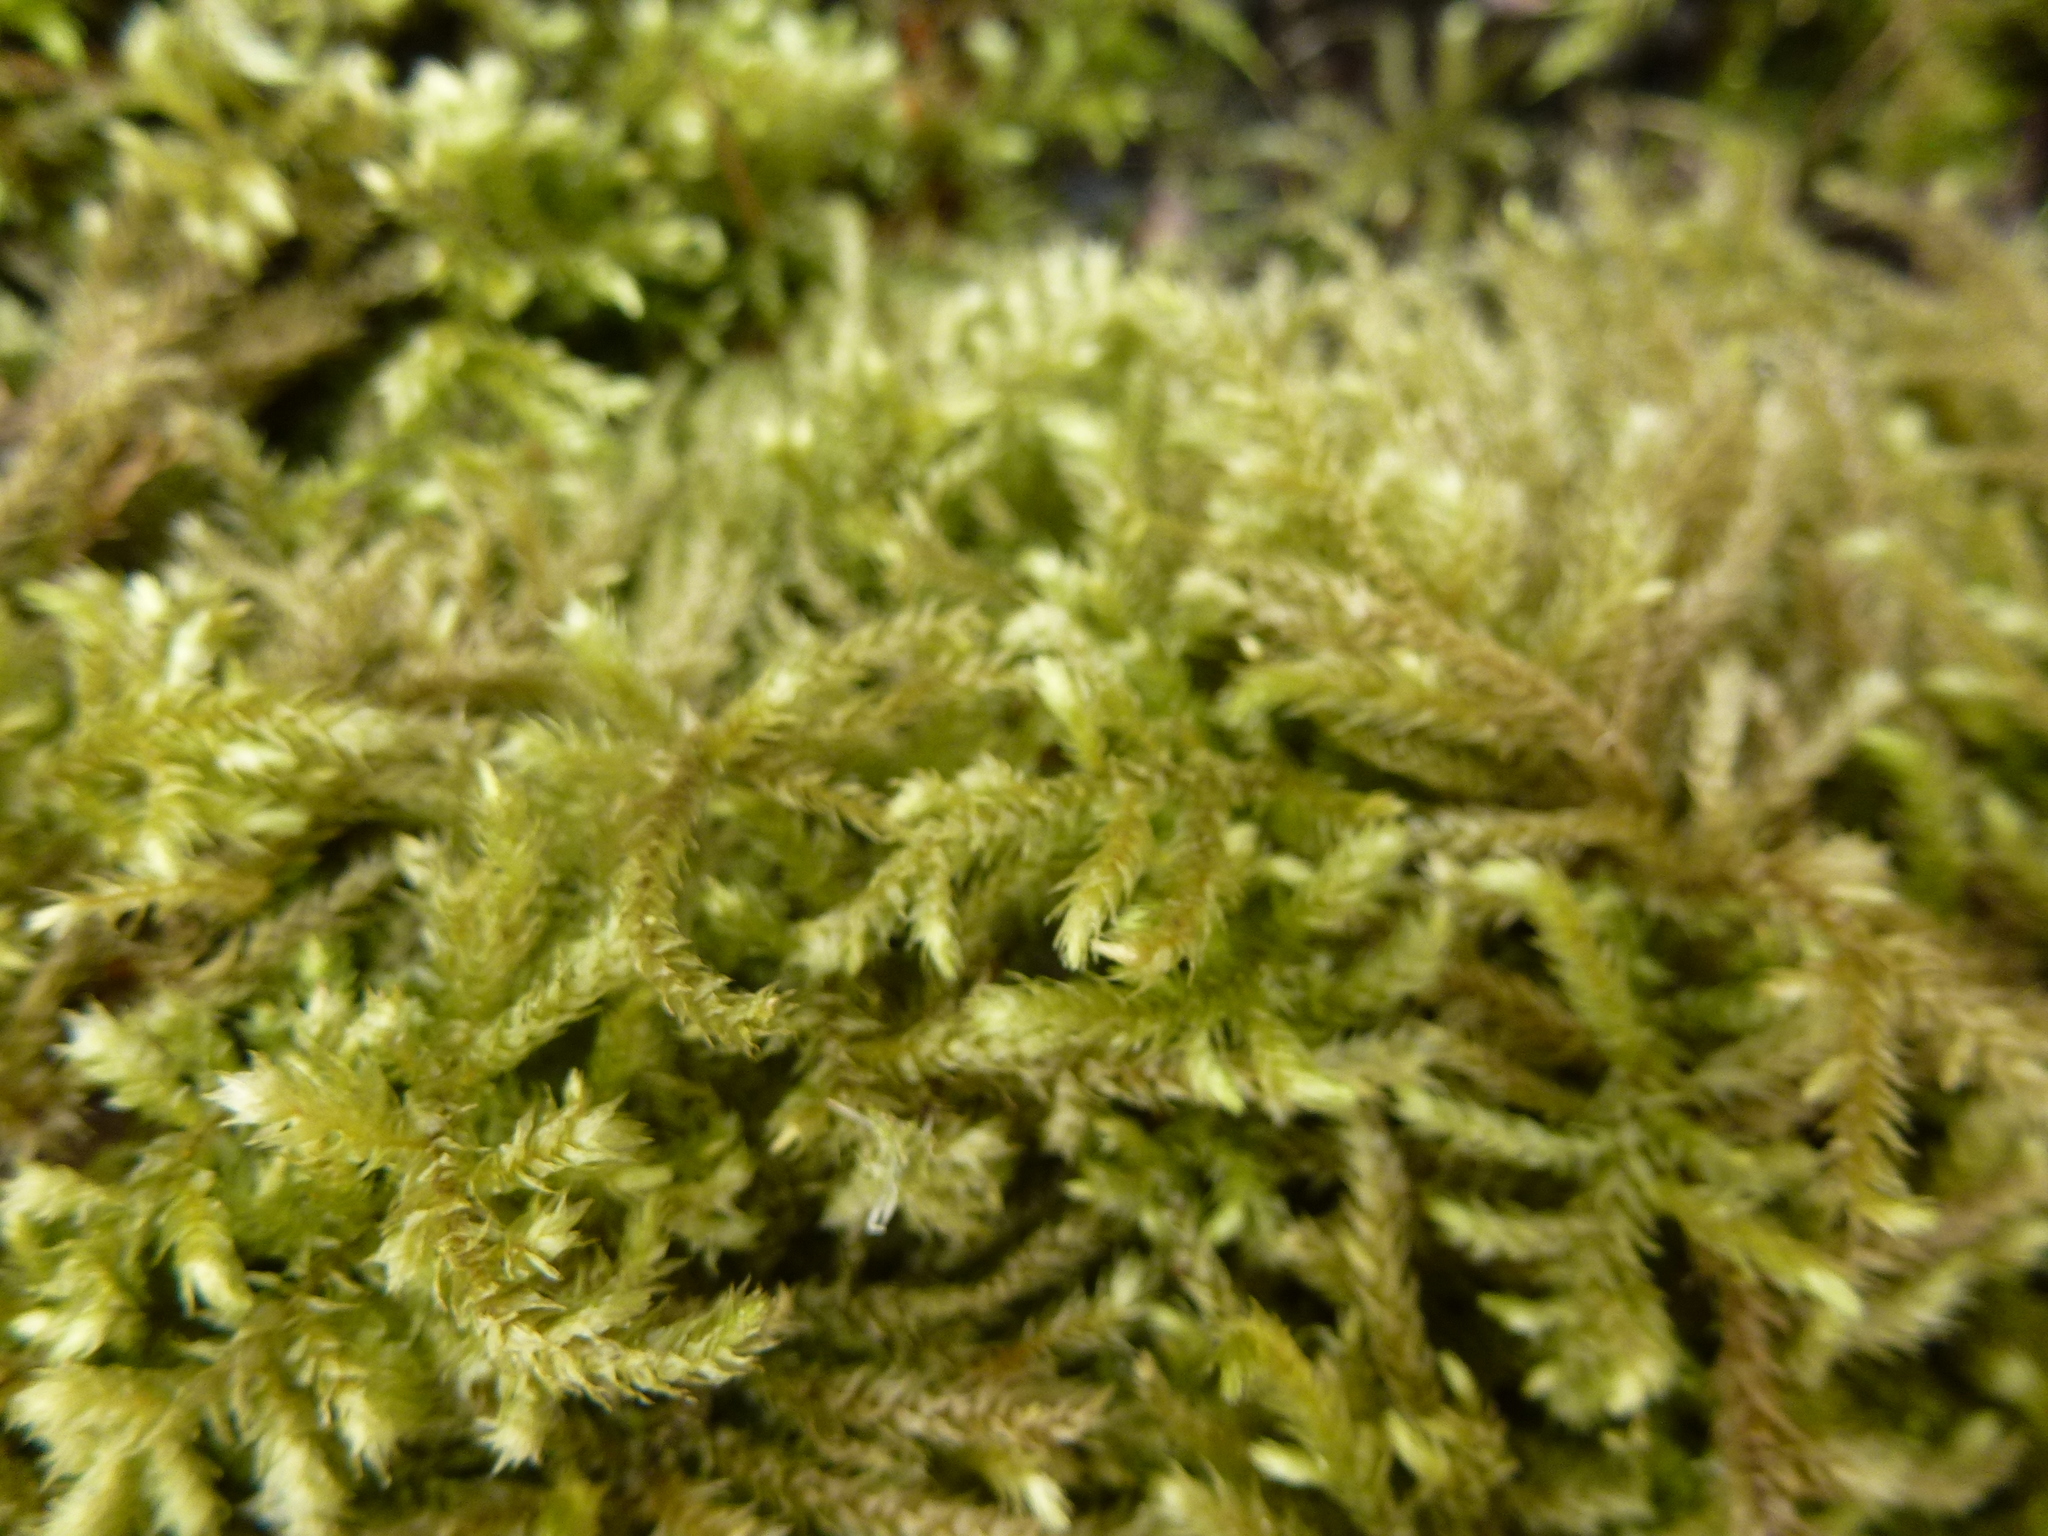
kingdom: Plantae
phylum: Bryophyta
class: Bryopsida
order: Hypnales
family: Brachytheciaceae
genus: Brachythecium
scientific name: Brachythecium rutabulum
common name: Rough-stalked feather-moss
